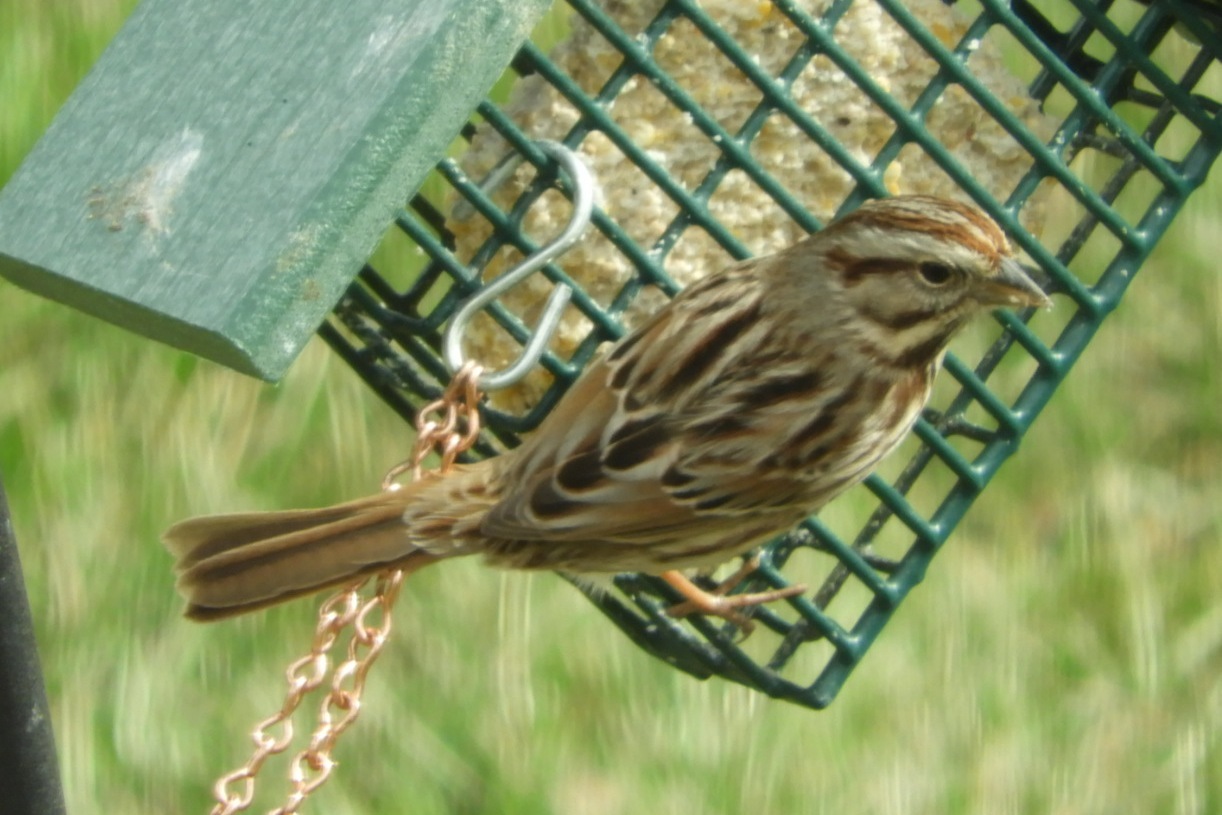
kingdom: Animalia
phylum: Chordata
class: Aves
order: Passeriformes
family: Passerellidae
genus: Melospiza
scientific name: Melospiza melodia
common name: Song sparrow
